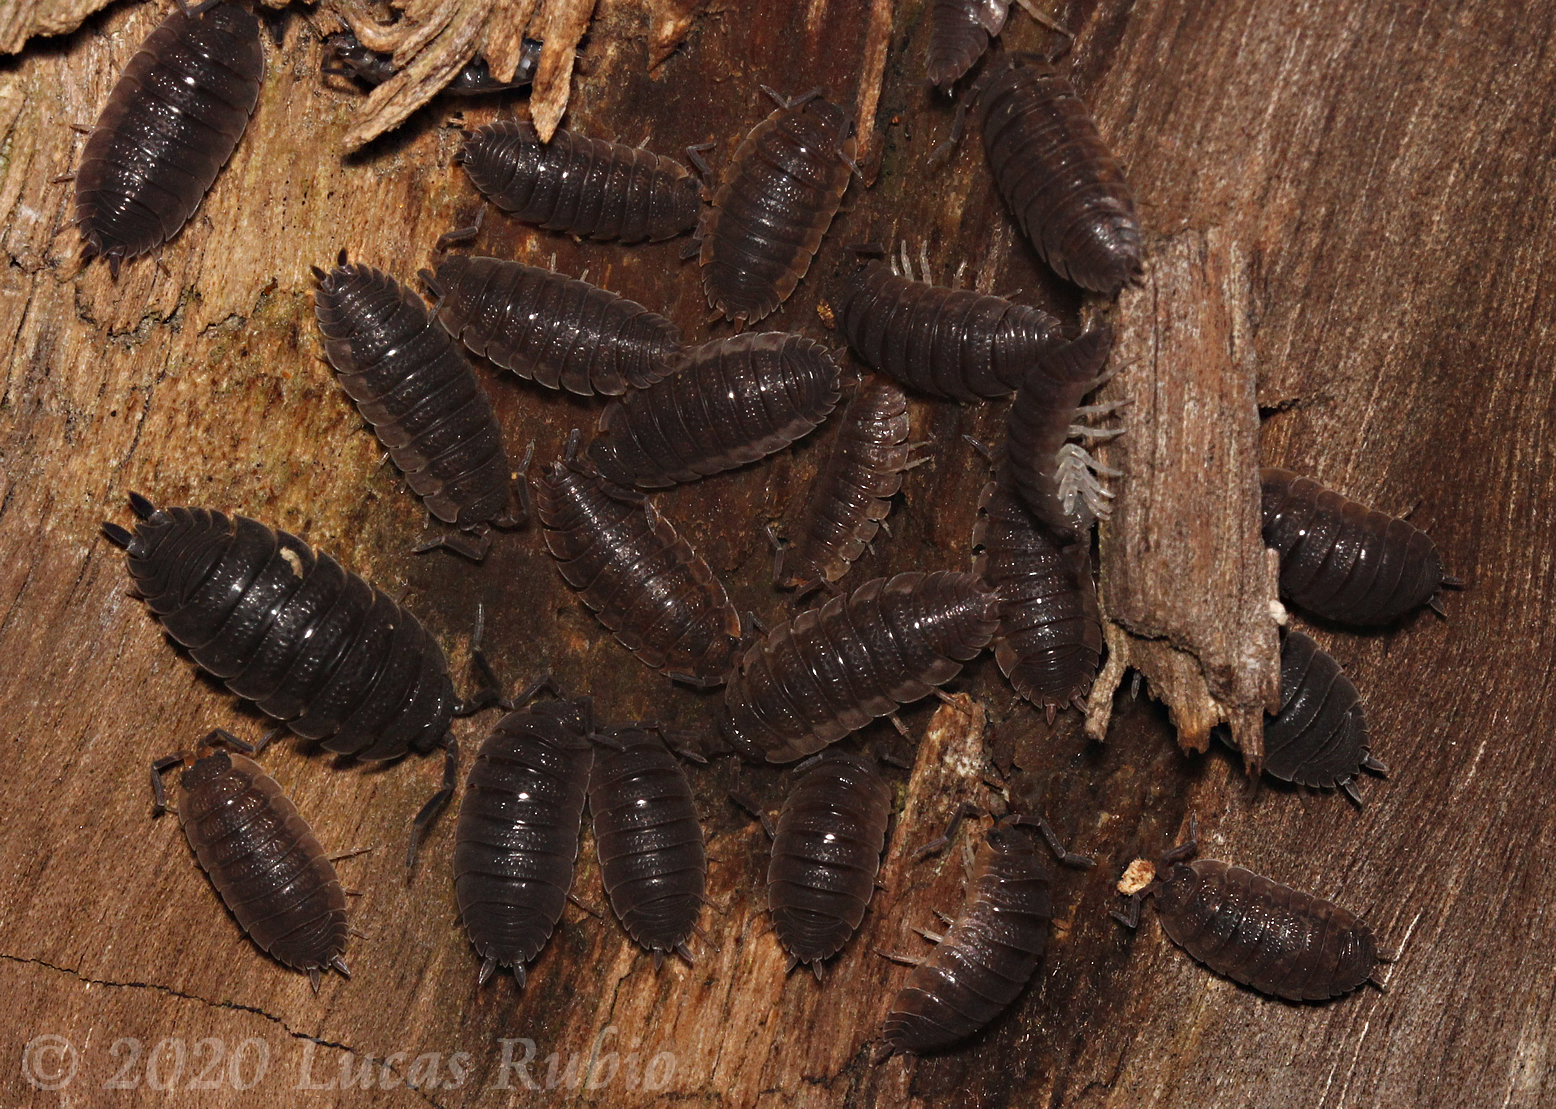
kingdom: Animalia
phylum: Arthropoda
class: Malacostraca
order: Isopoda
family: Porcellionidae
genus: Porcellio
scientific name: Porcellio scaber
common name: Common rough woodlouse
